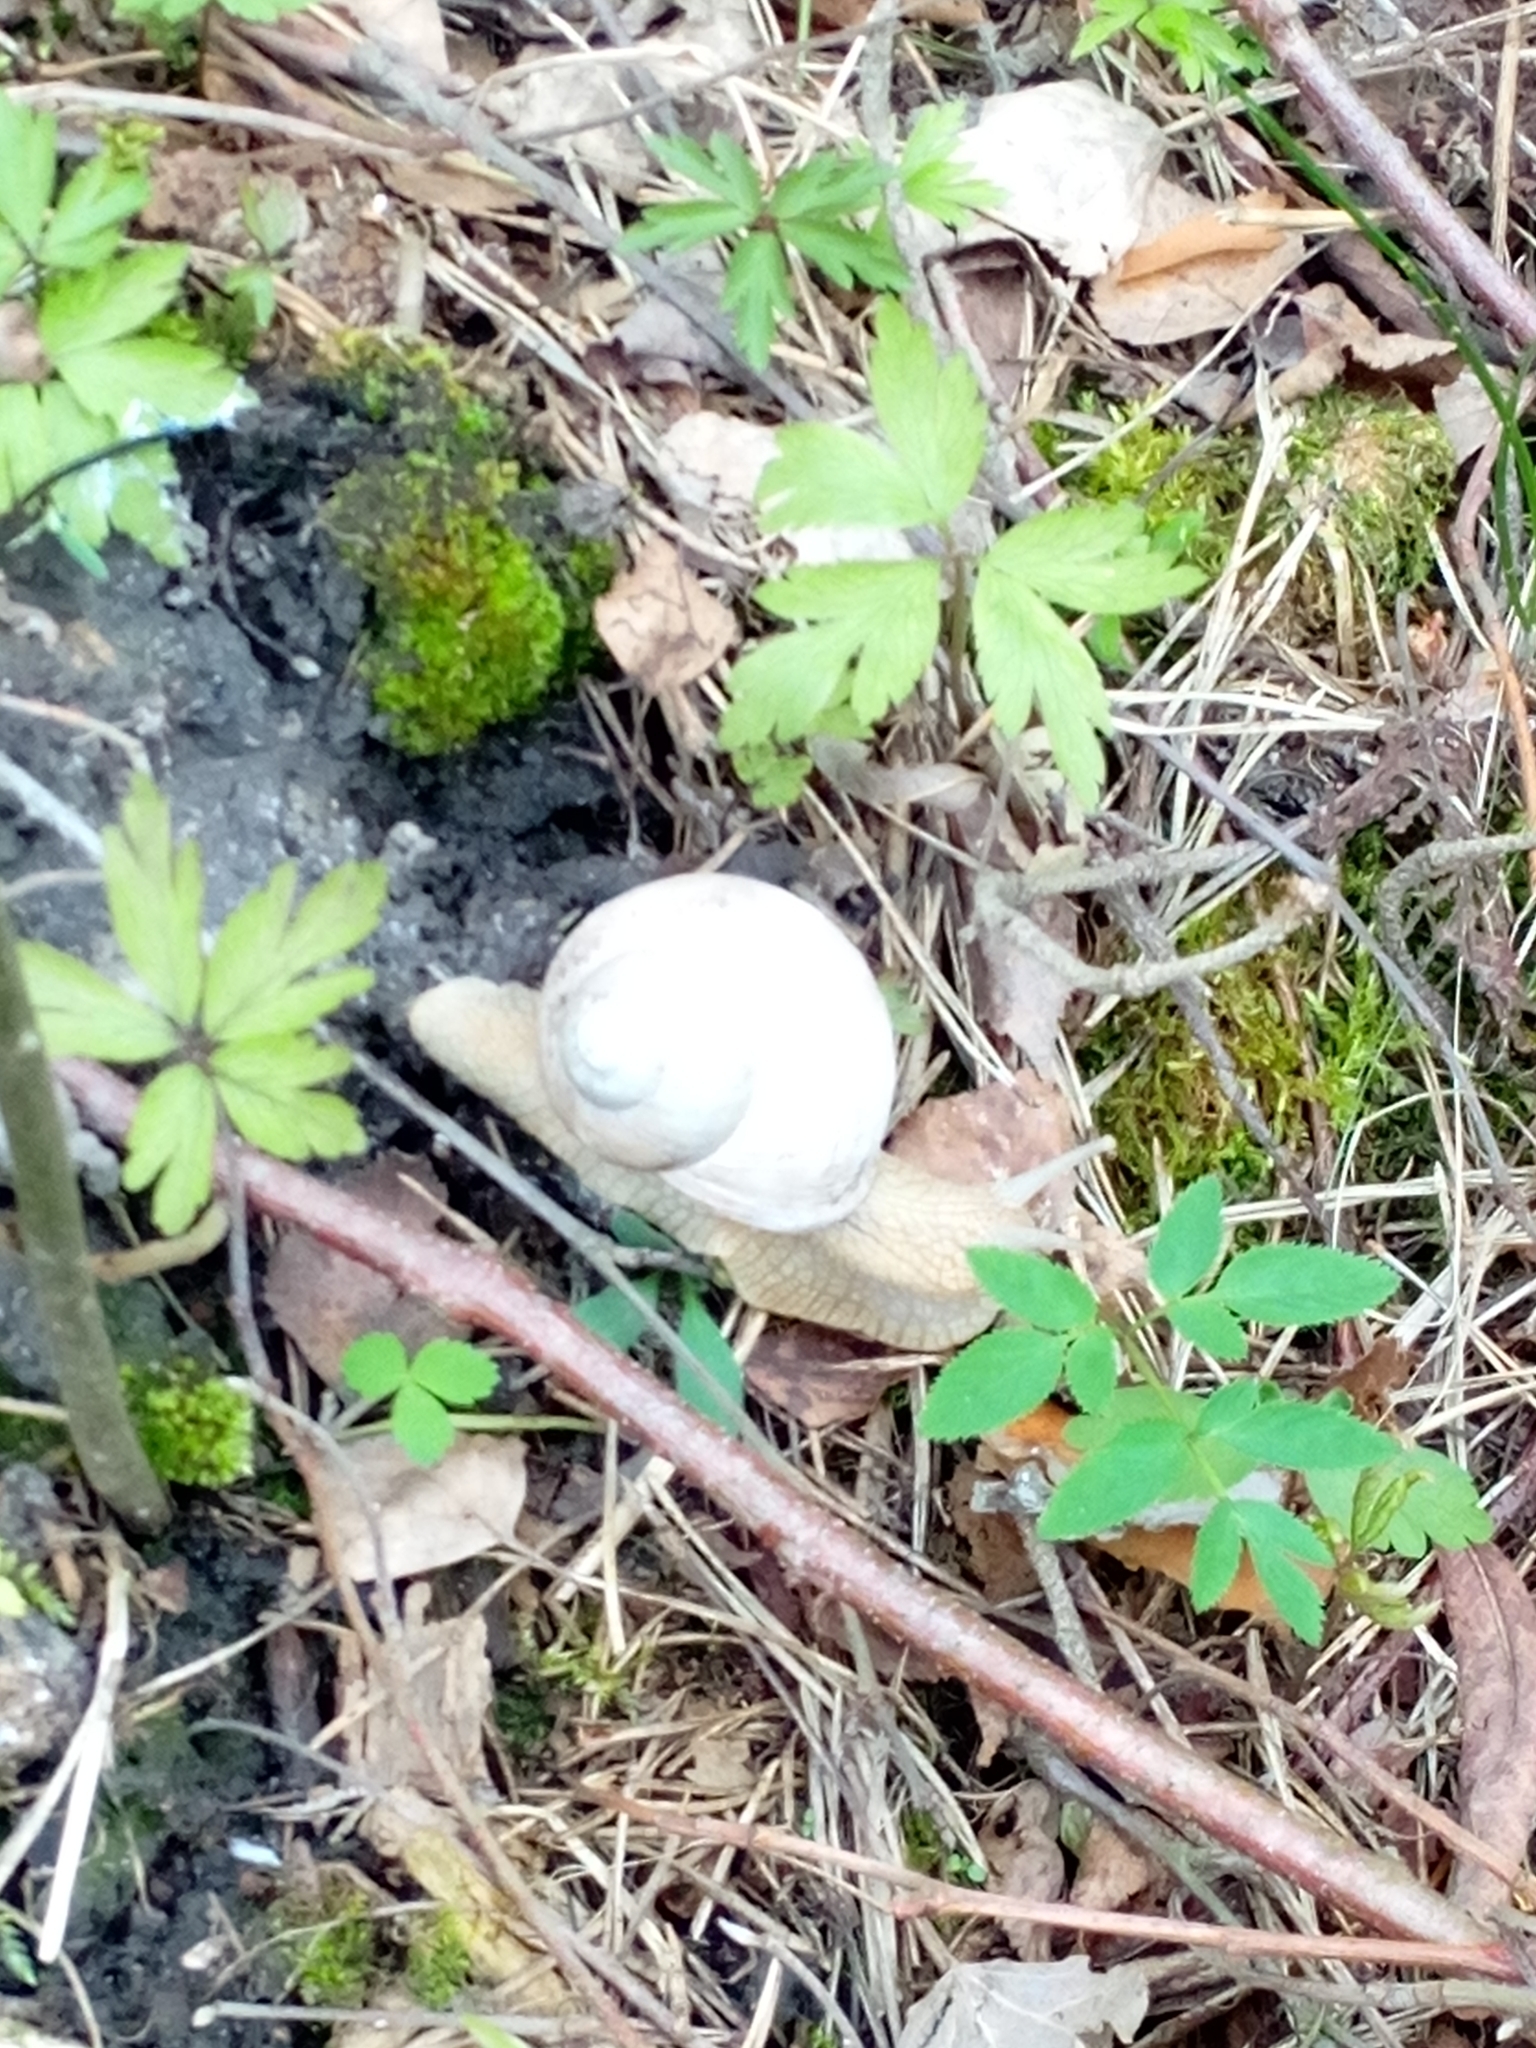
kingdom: Animalia
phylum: Mollusca
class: Gastropoda
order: Stylommatophora
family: Helicidae
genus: Helix
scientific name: Helix pomatia
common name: Roman snail
